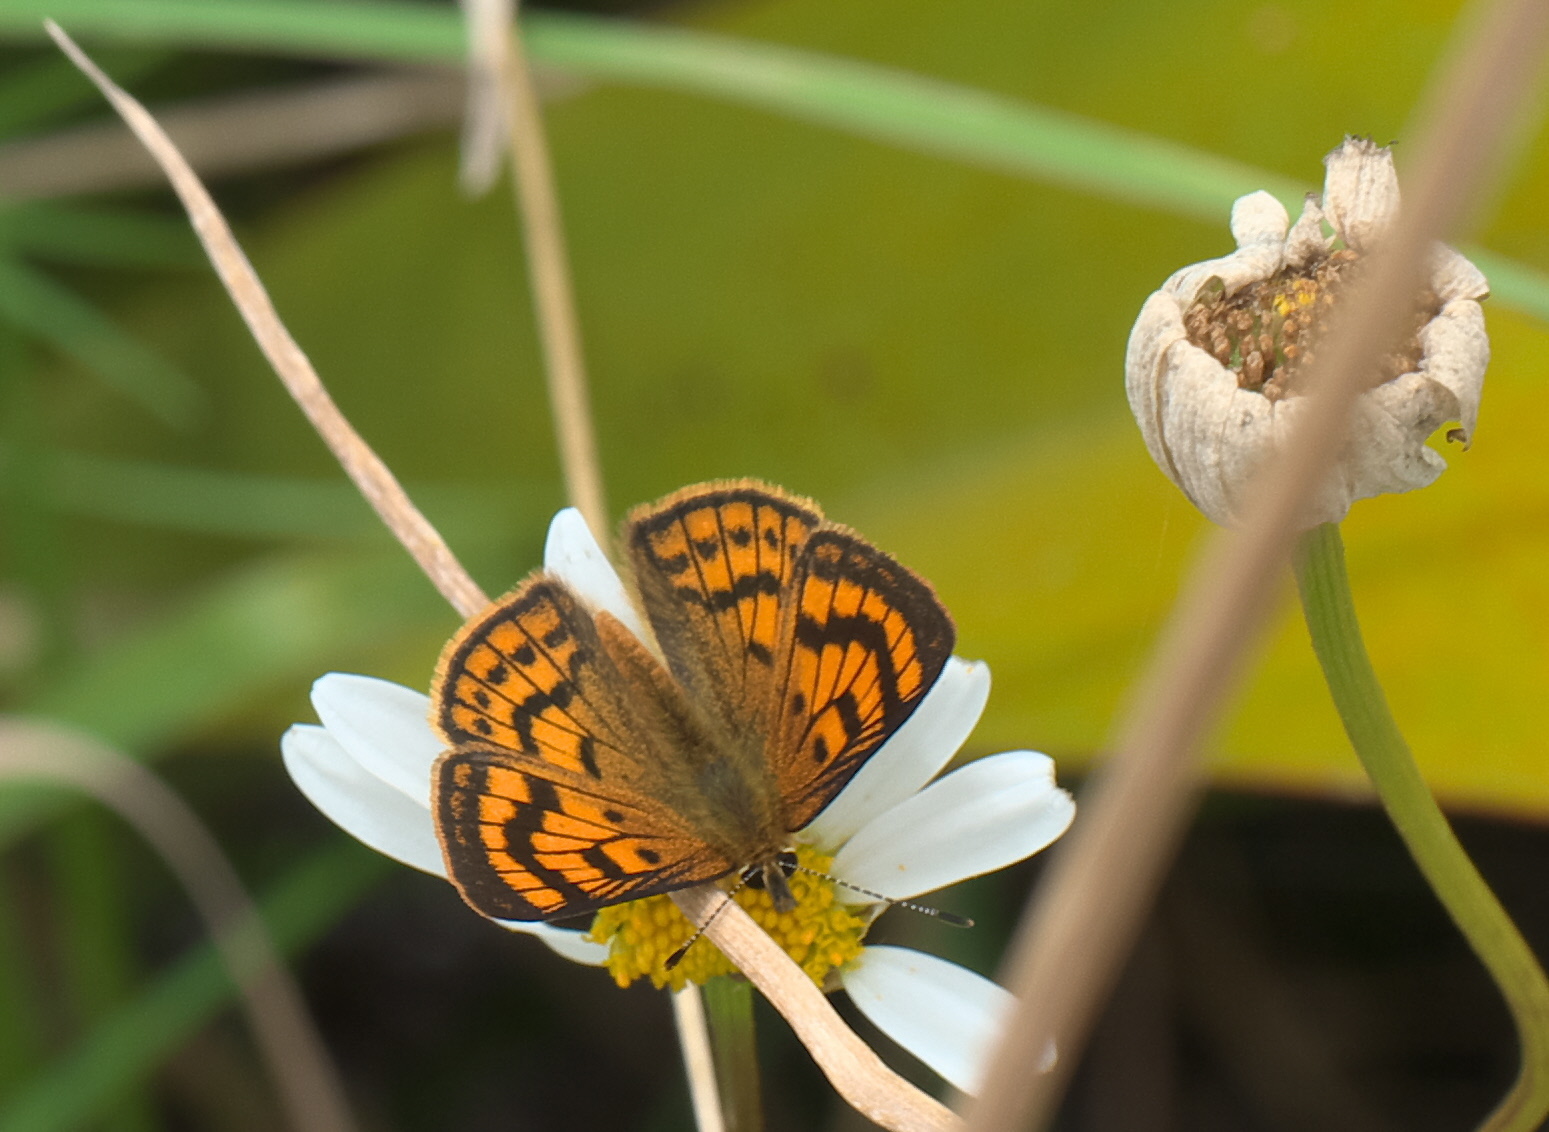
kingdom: Animalia
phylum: Arthropoda
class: Insecta
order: Lepidoptera
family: Lycaenidae
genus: Lycaena
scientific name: Lycaena salustius
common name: North island coastal copper
